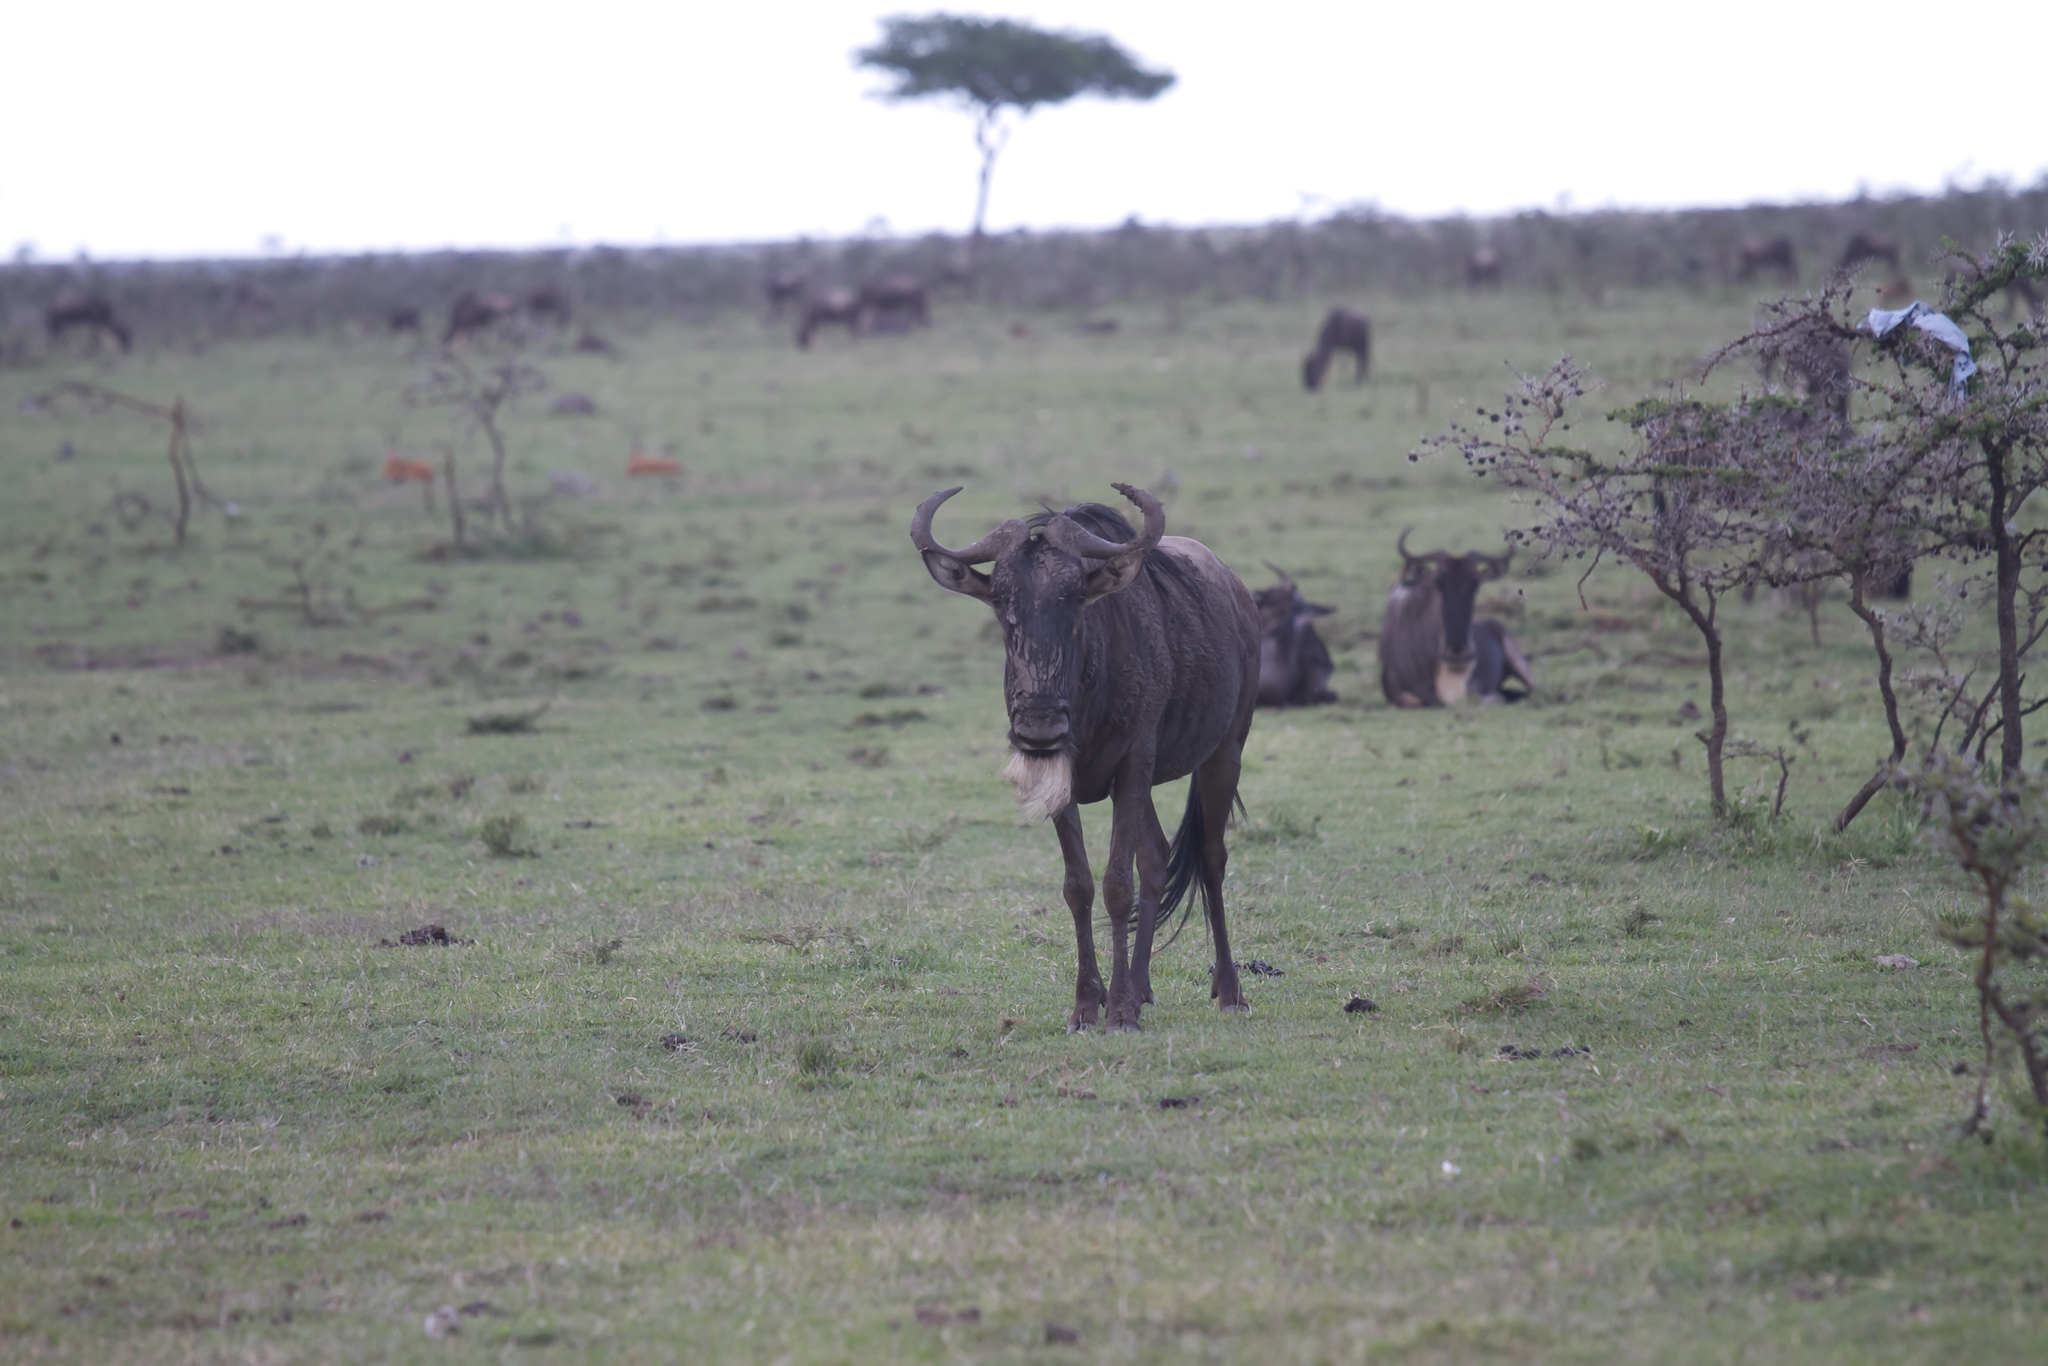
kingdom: Animalia
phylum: Chordata
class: Mammalia
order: Artiodactyla
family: Bovidae
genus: Connochaetes
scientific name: Connochaetes taurinus
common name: Blue wildebeest
